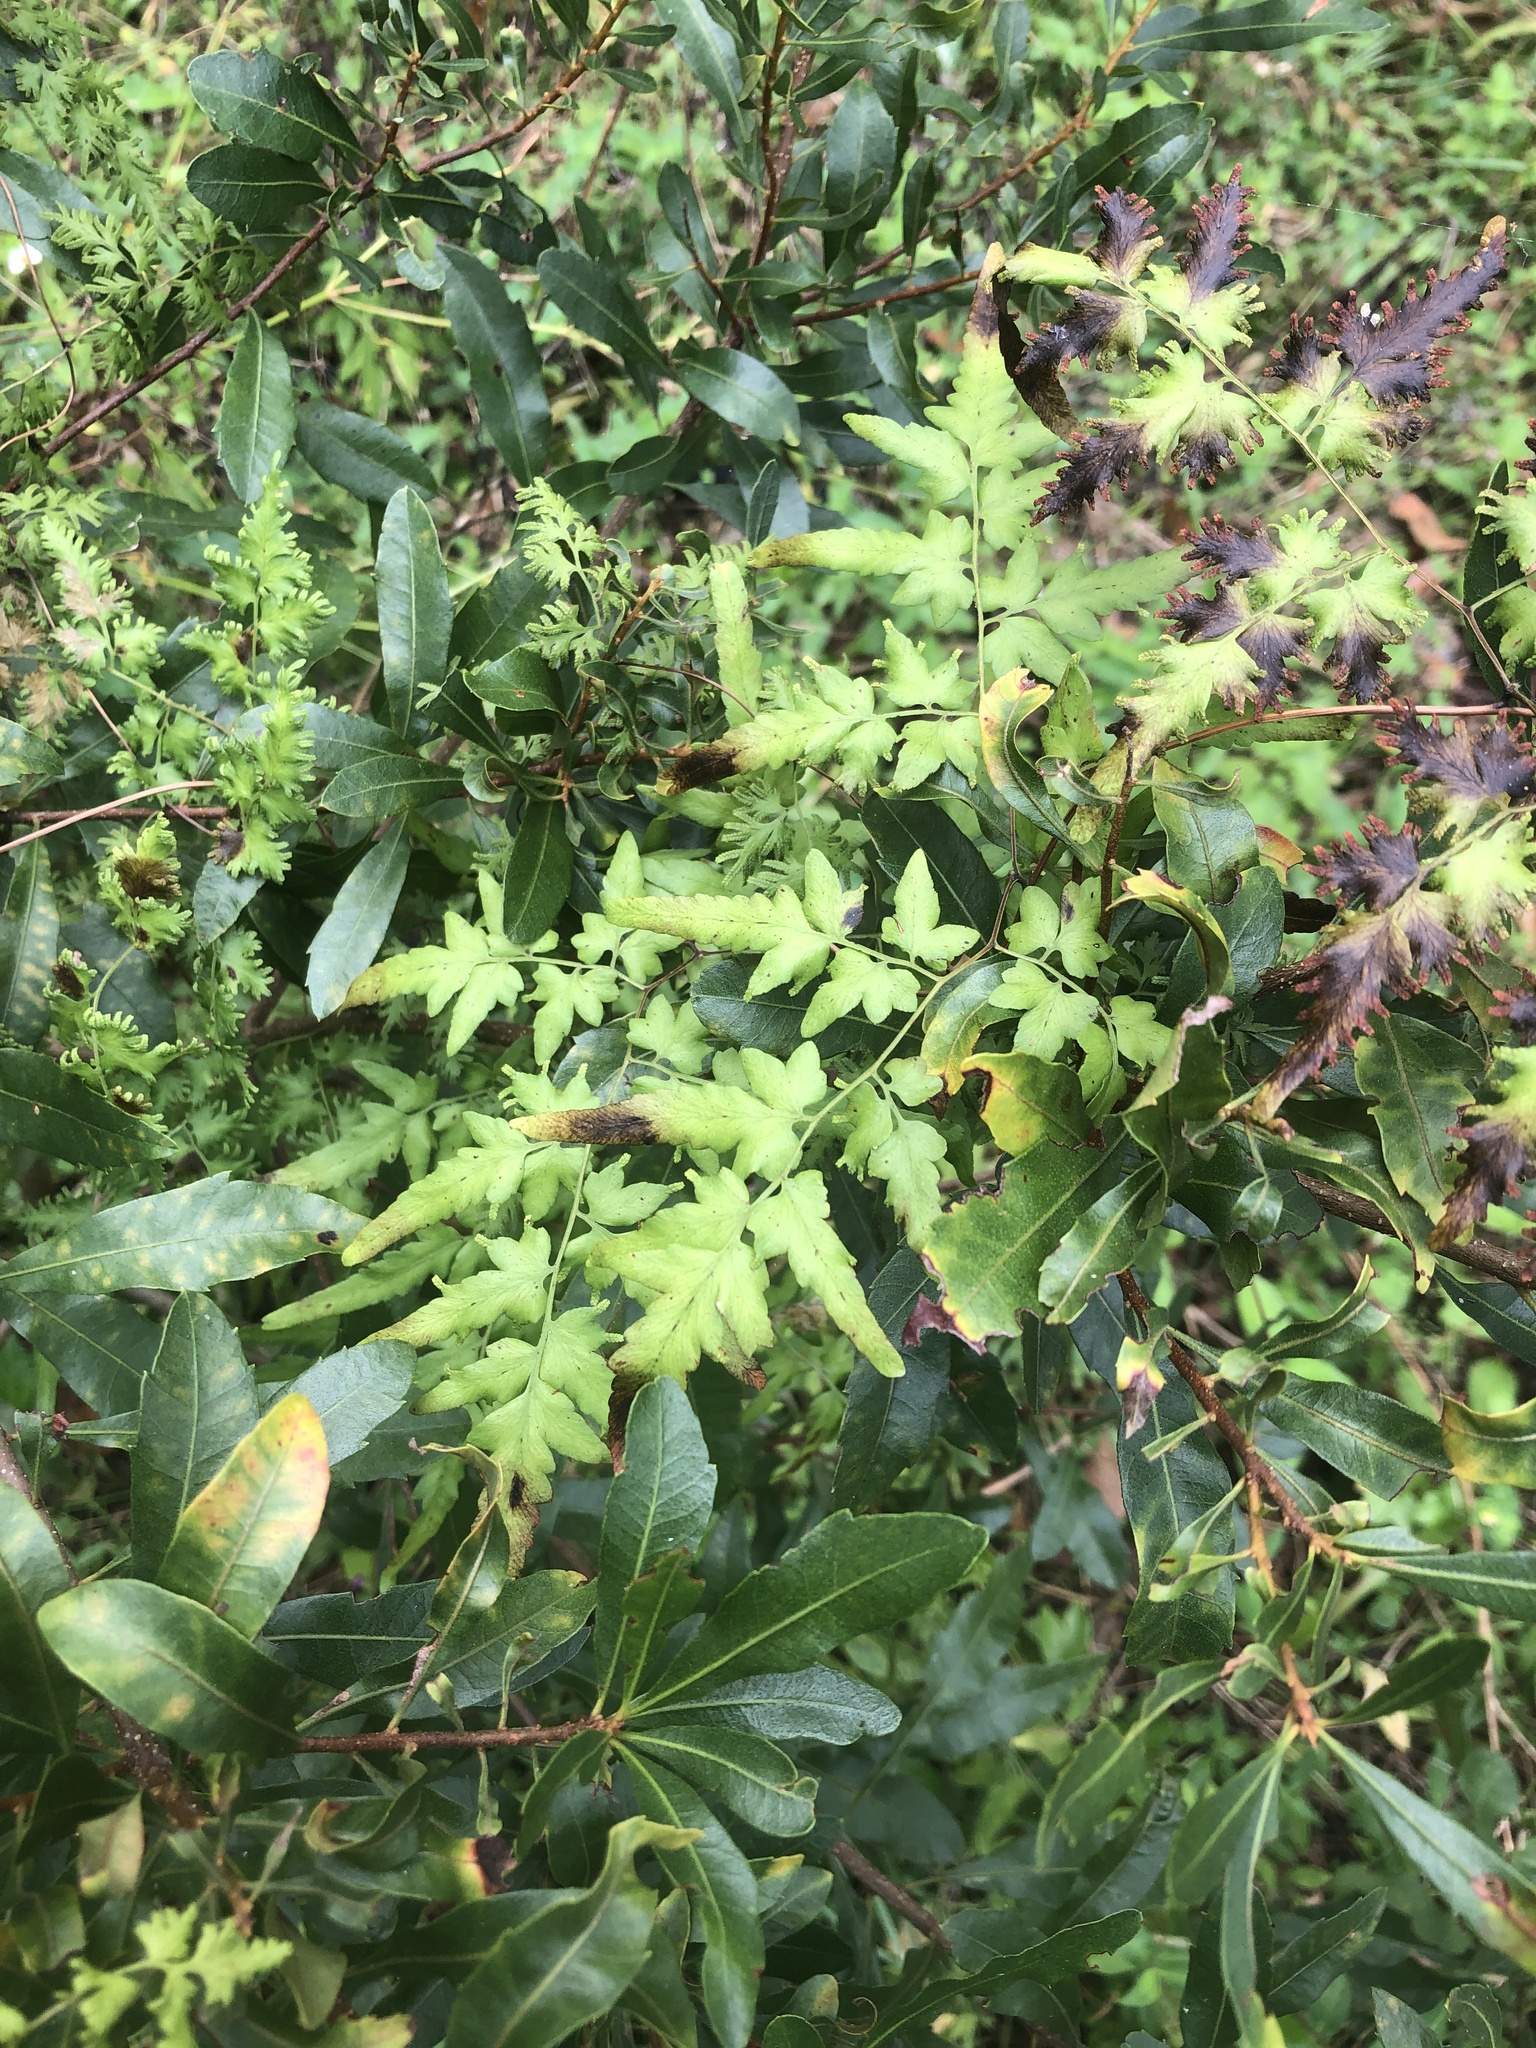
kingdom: Plantae
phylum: Tracheophyta
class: Polypodiopsida
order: Schizaeales
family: Lygodiaceae
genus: Lygodium
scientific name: Lygodium japonicum
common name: Japanese climbing fern
